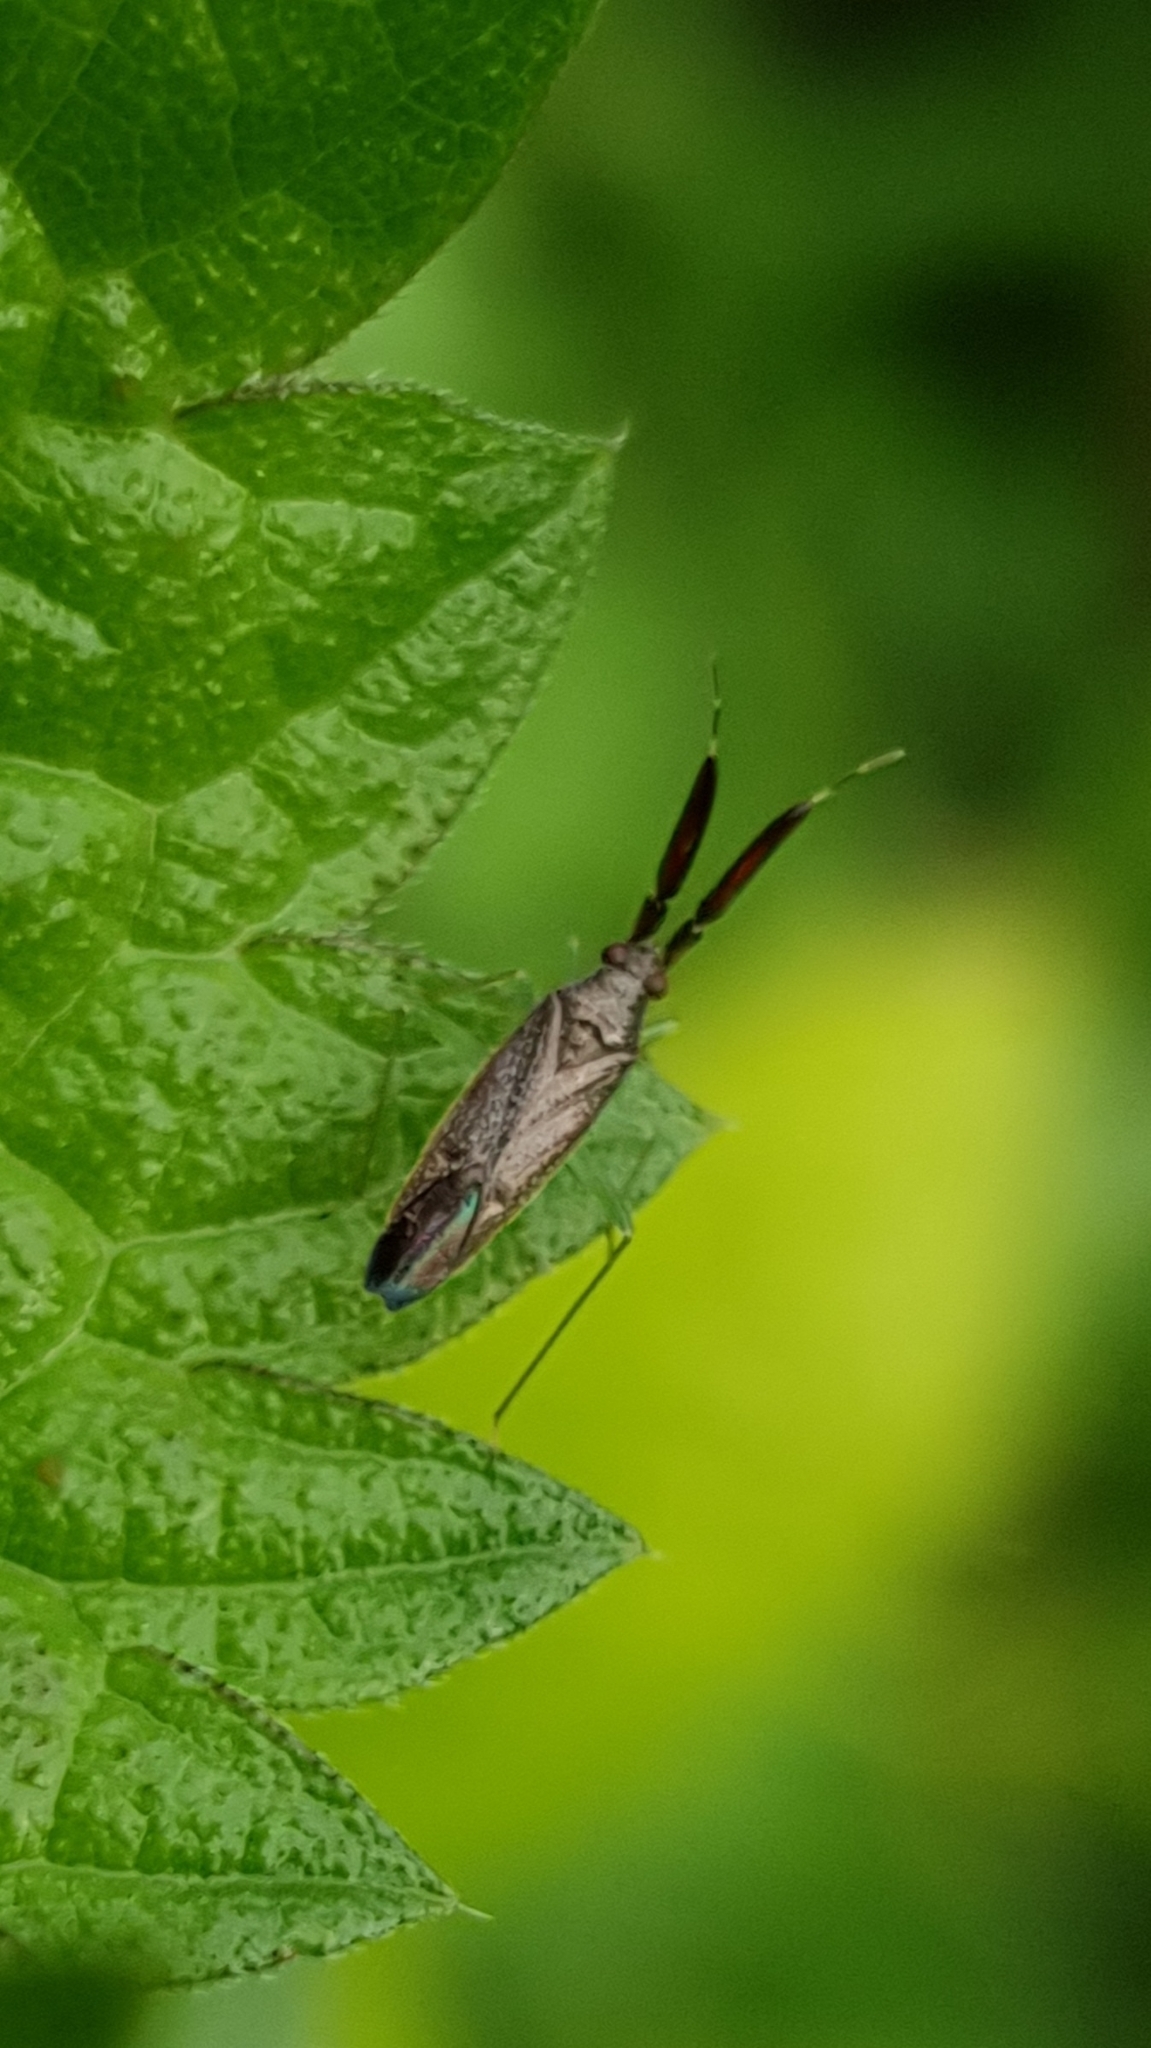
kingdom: Animalia
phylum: Arthropoda
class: Insecta
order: Hemiptera
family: Miridae
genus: Heterotoma
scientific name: Heterotoma planicornis
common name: Plant bug
